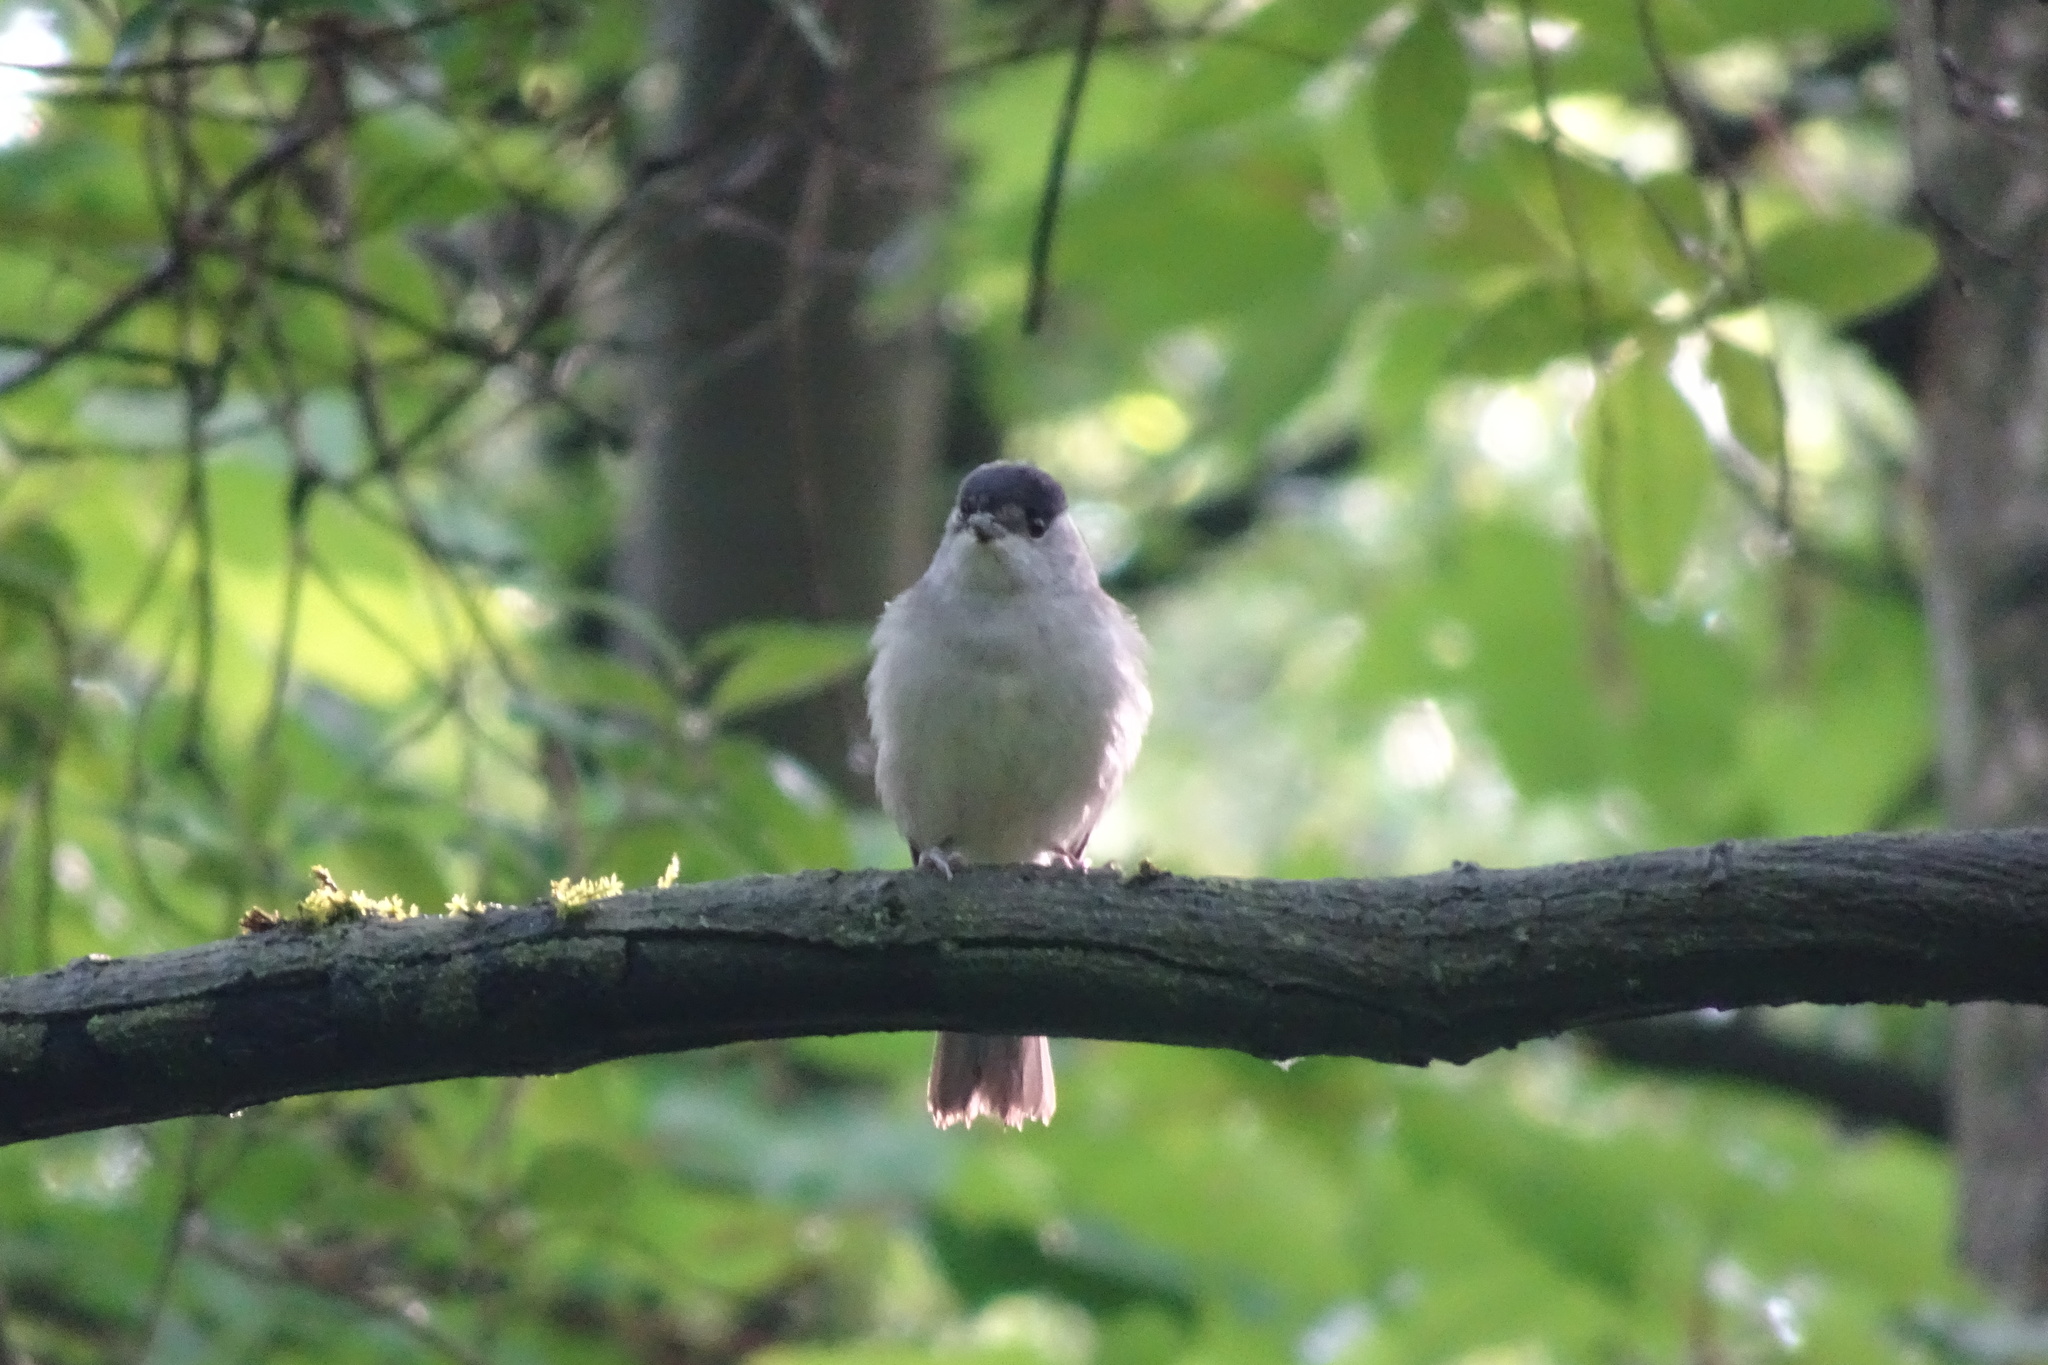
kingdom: Animalia
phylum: Chordata
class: Aves
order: Passeriformes
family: Sylviidae
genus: Sylvia
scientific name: Sylvia atricapilla
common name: Eurasian blackcap
